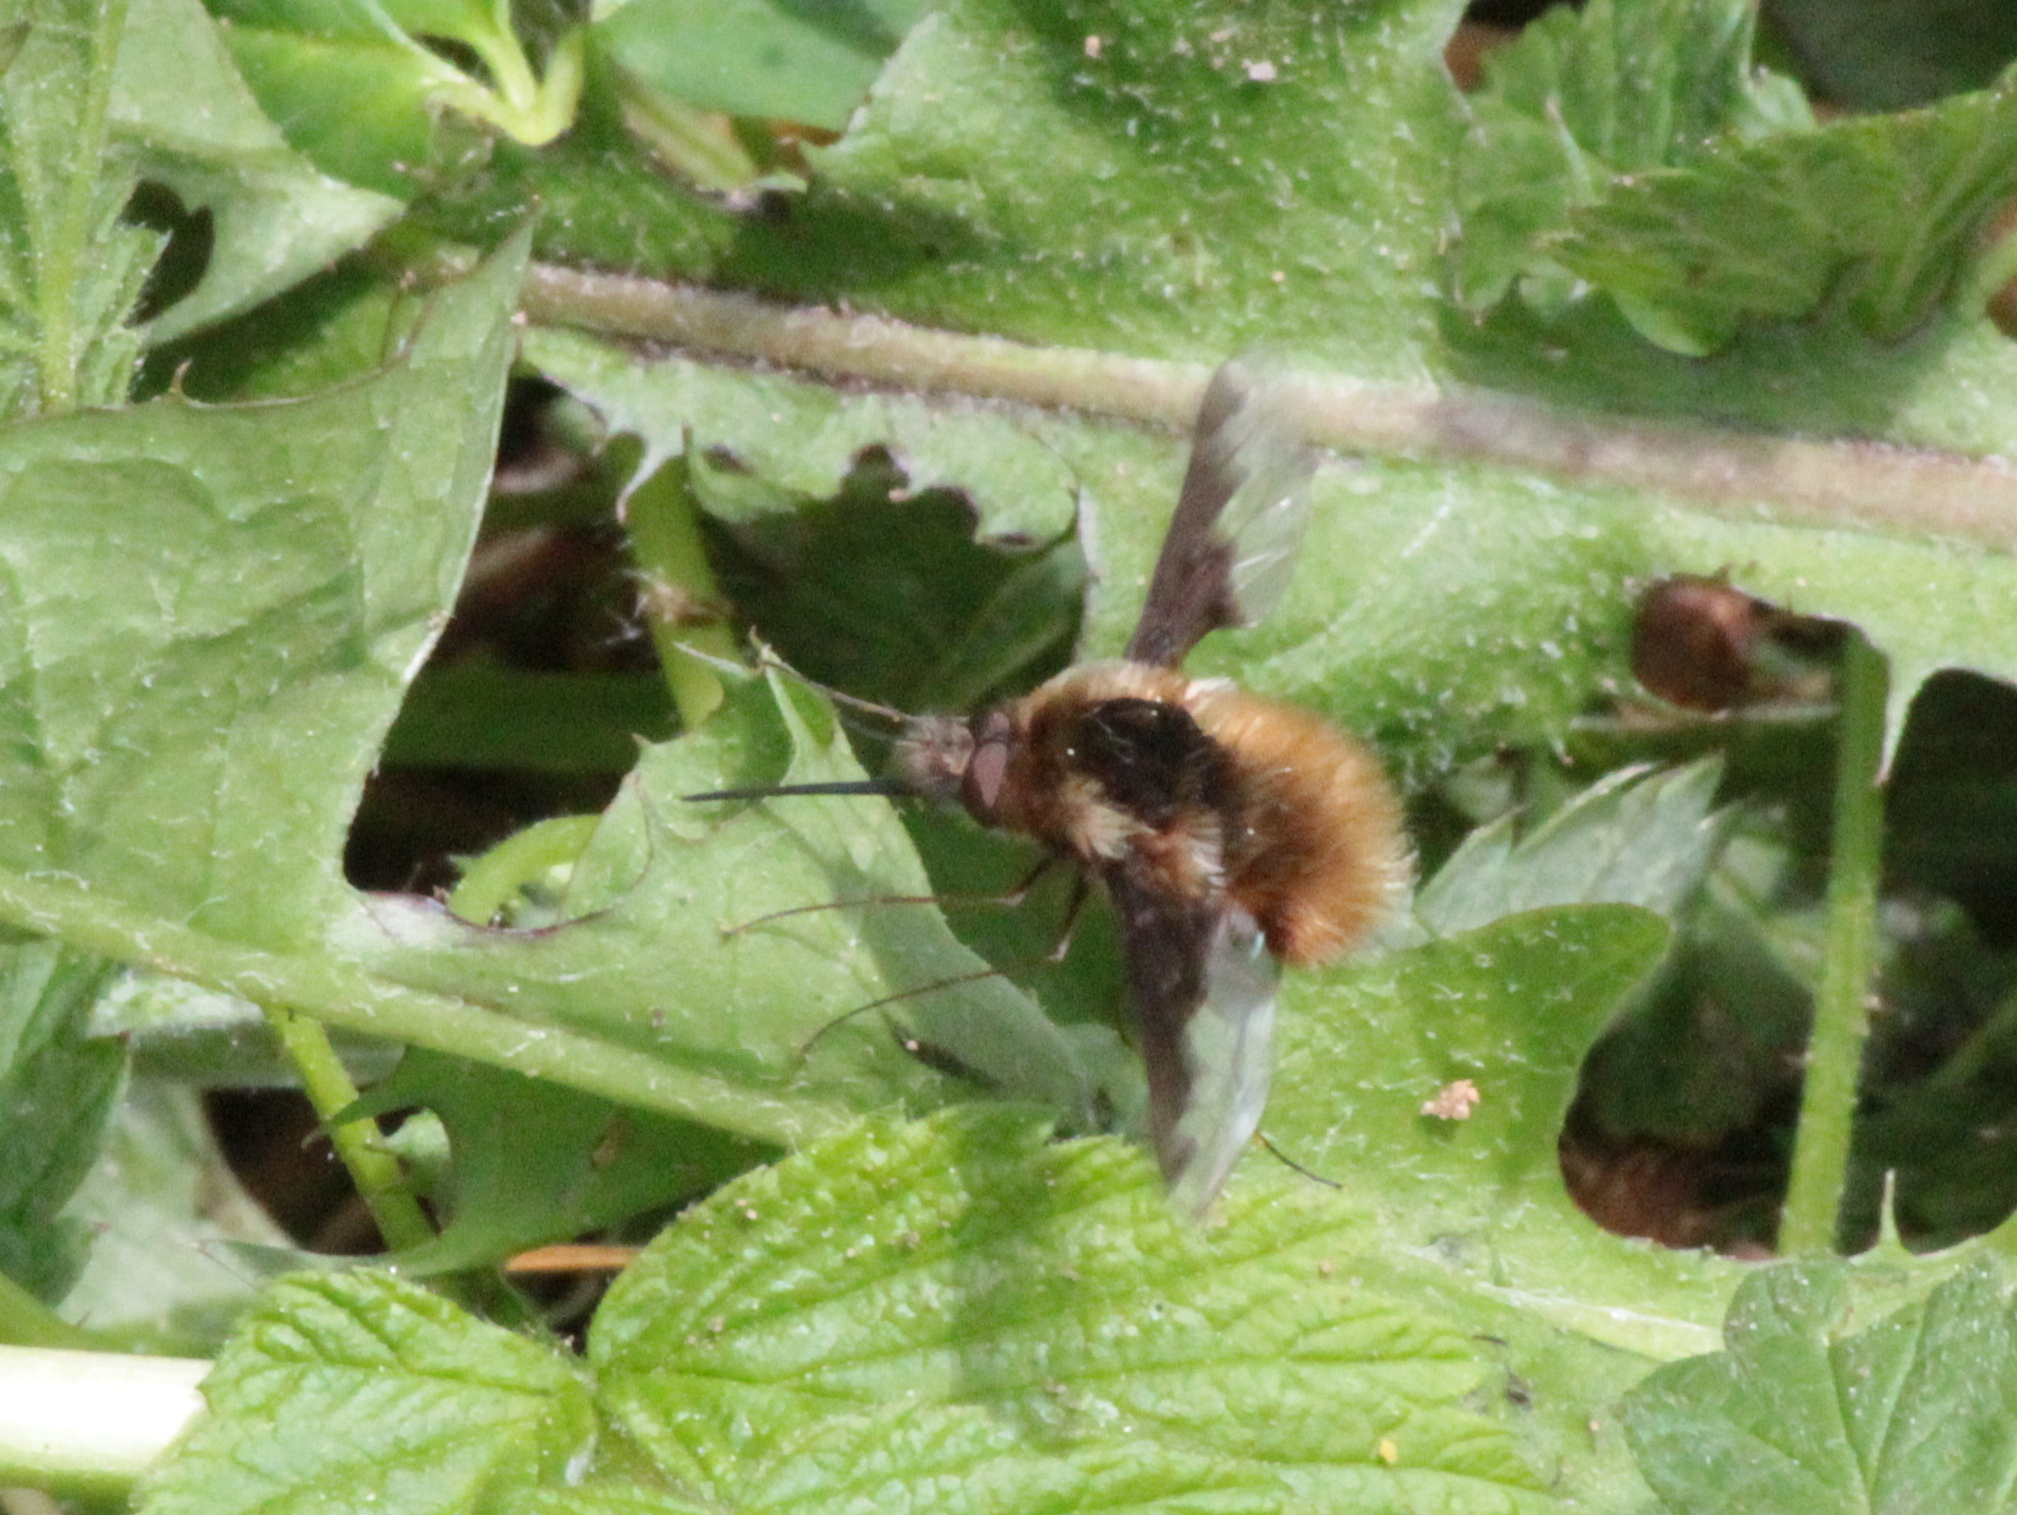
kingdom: Animalia
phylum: Arthropoda
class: Insecta
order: Diptera
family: Bombyliidae
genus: Bombylius
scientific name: Bombylius major
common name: Bee fly
